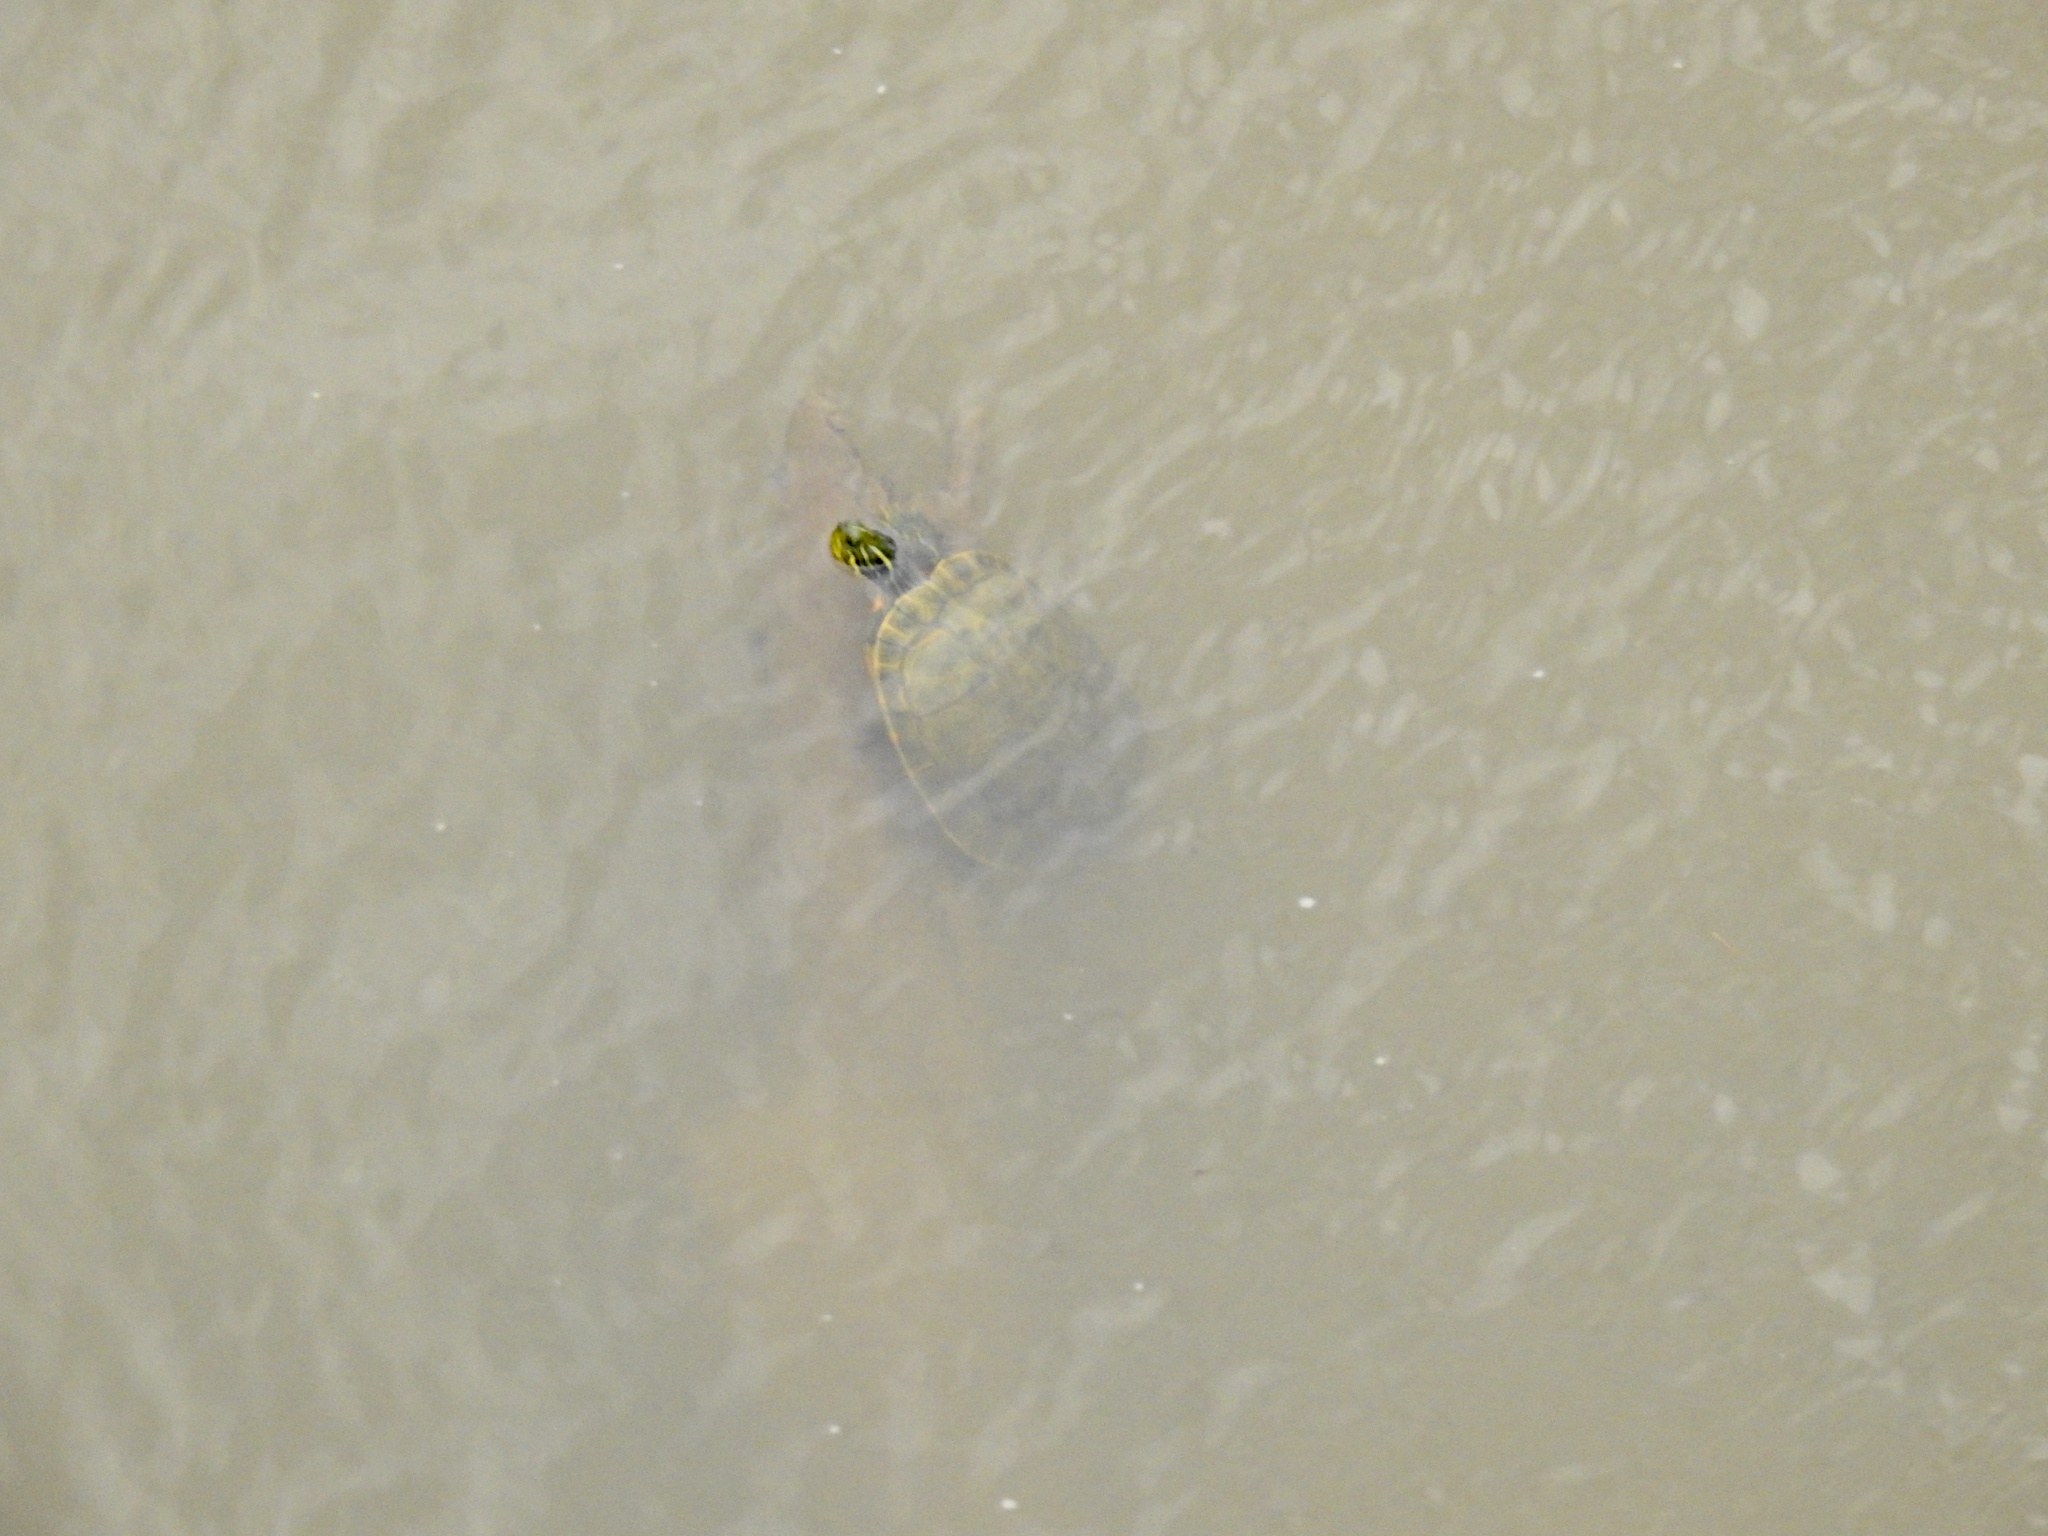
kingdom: Animalia
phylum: Chordata
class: Testudines
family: Emydidae
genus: Pseudemys
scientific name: Pseudemys concinna
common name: Eastern river cooter
